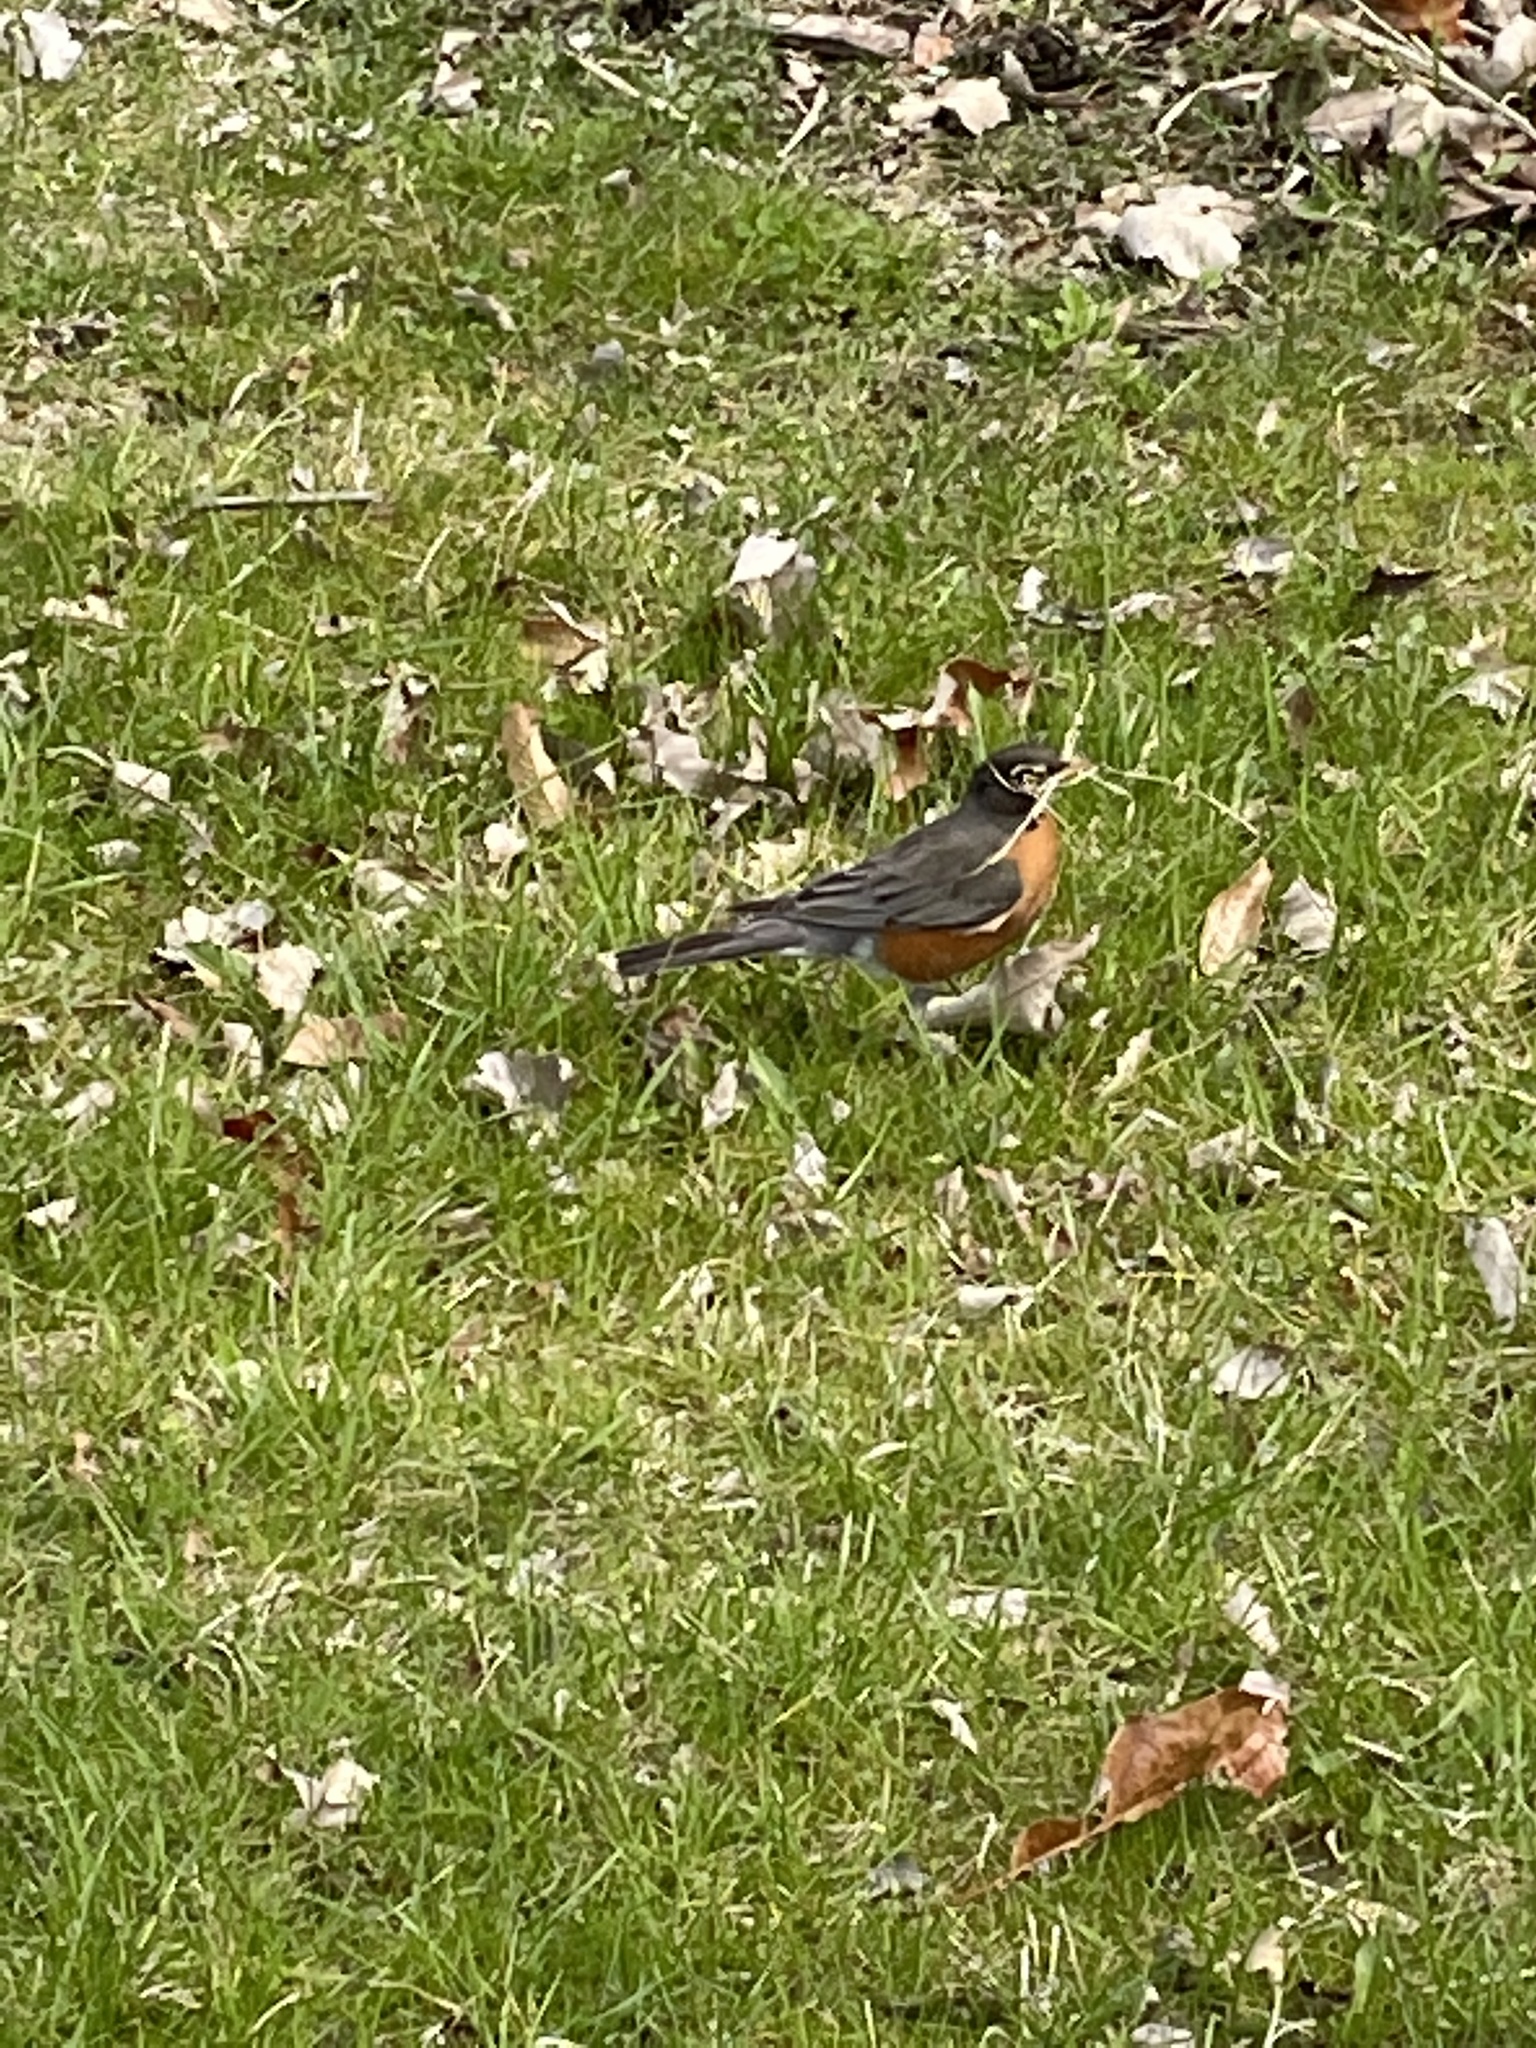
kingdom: Animalia
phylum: Chordata
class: Aves
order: Passeriformes
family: Turdidae
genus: Turdus
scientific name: Turdus migratorius
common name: American robin
